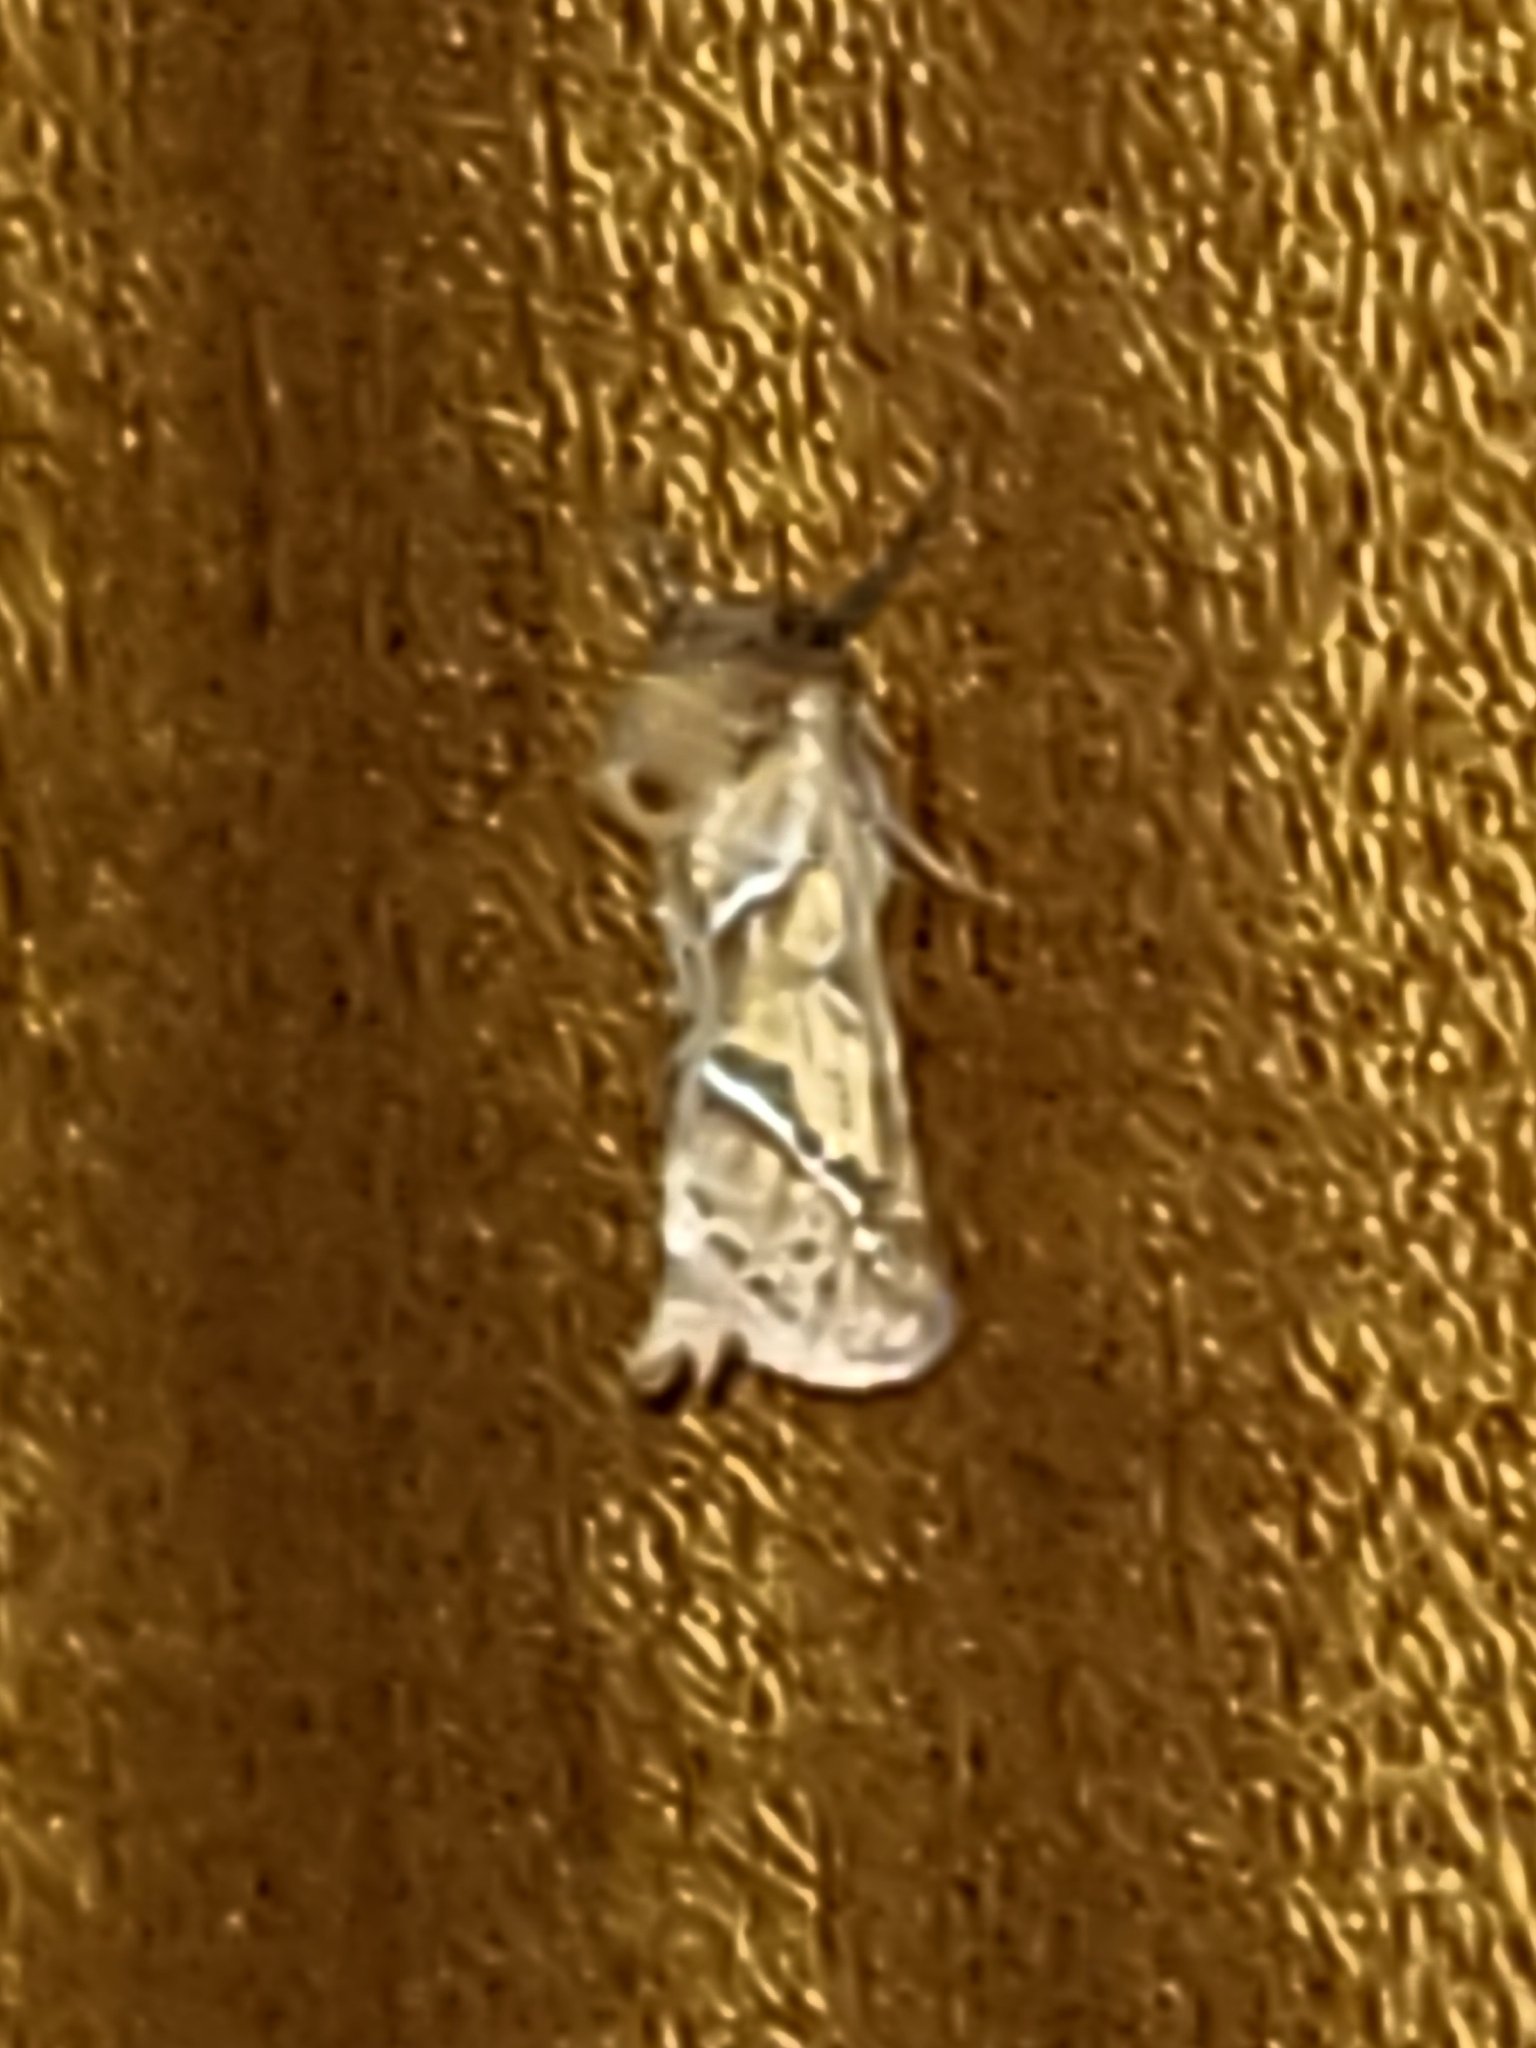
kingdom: Animalia
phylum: Arthropoda
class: Insecta
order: Lepidoptera
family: Hepialidae
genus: Triodia
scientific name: Triodia sylvina
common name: Orange swift
